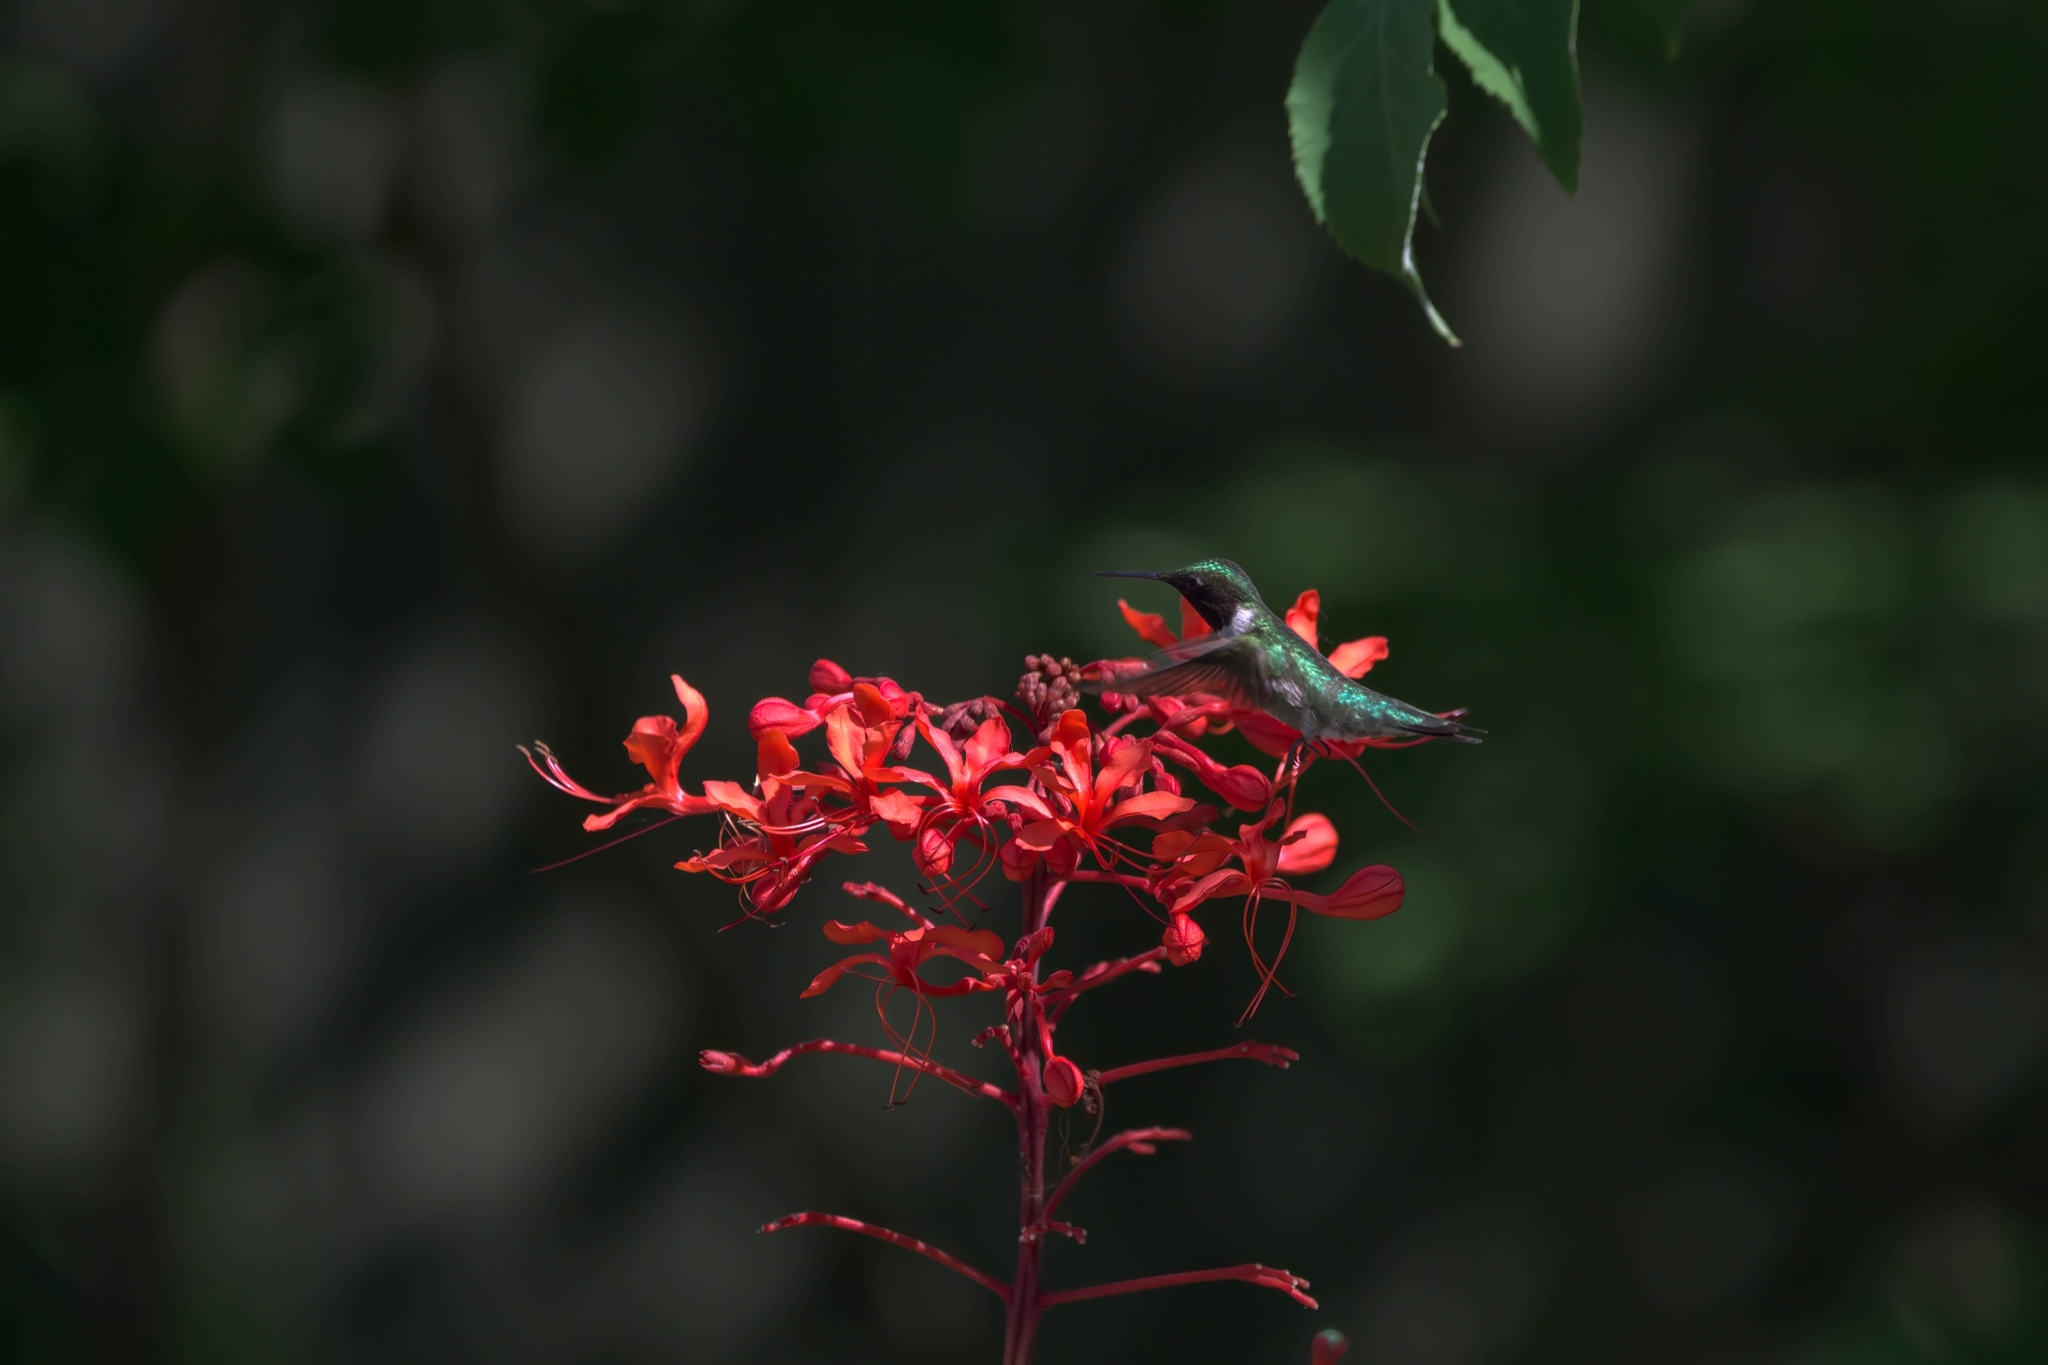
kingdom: Animalia
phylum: Chordata
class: Aves
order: Apodiformes
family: Trochilidae
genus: Archilochus
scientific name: Archilochus colubris
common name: Ruby-throated hummingbird
